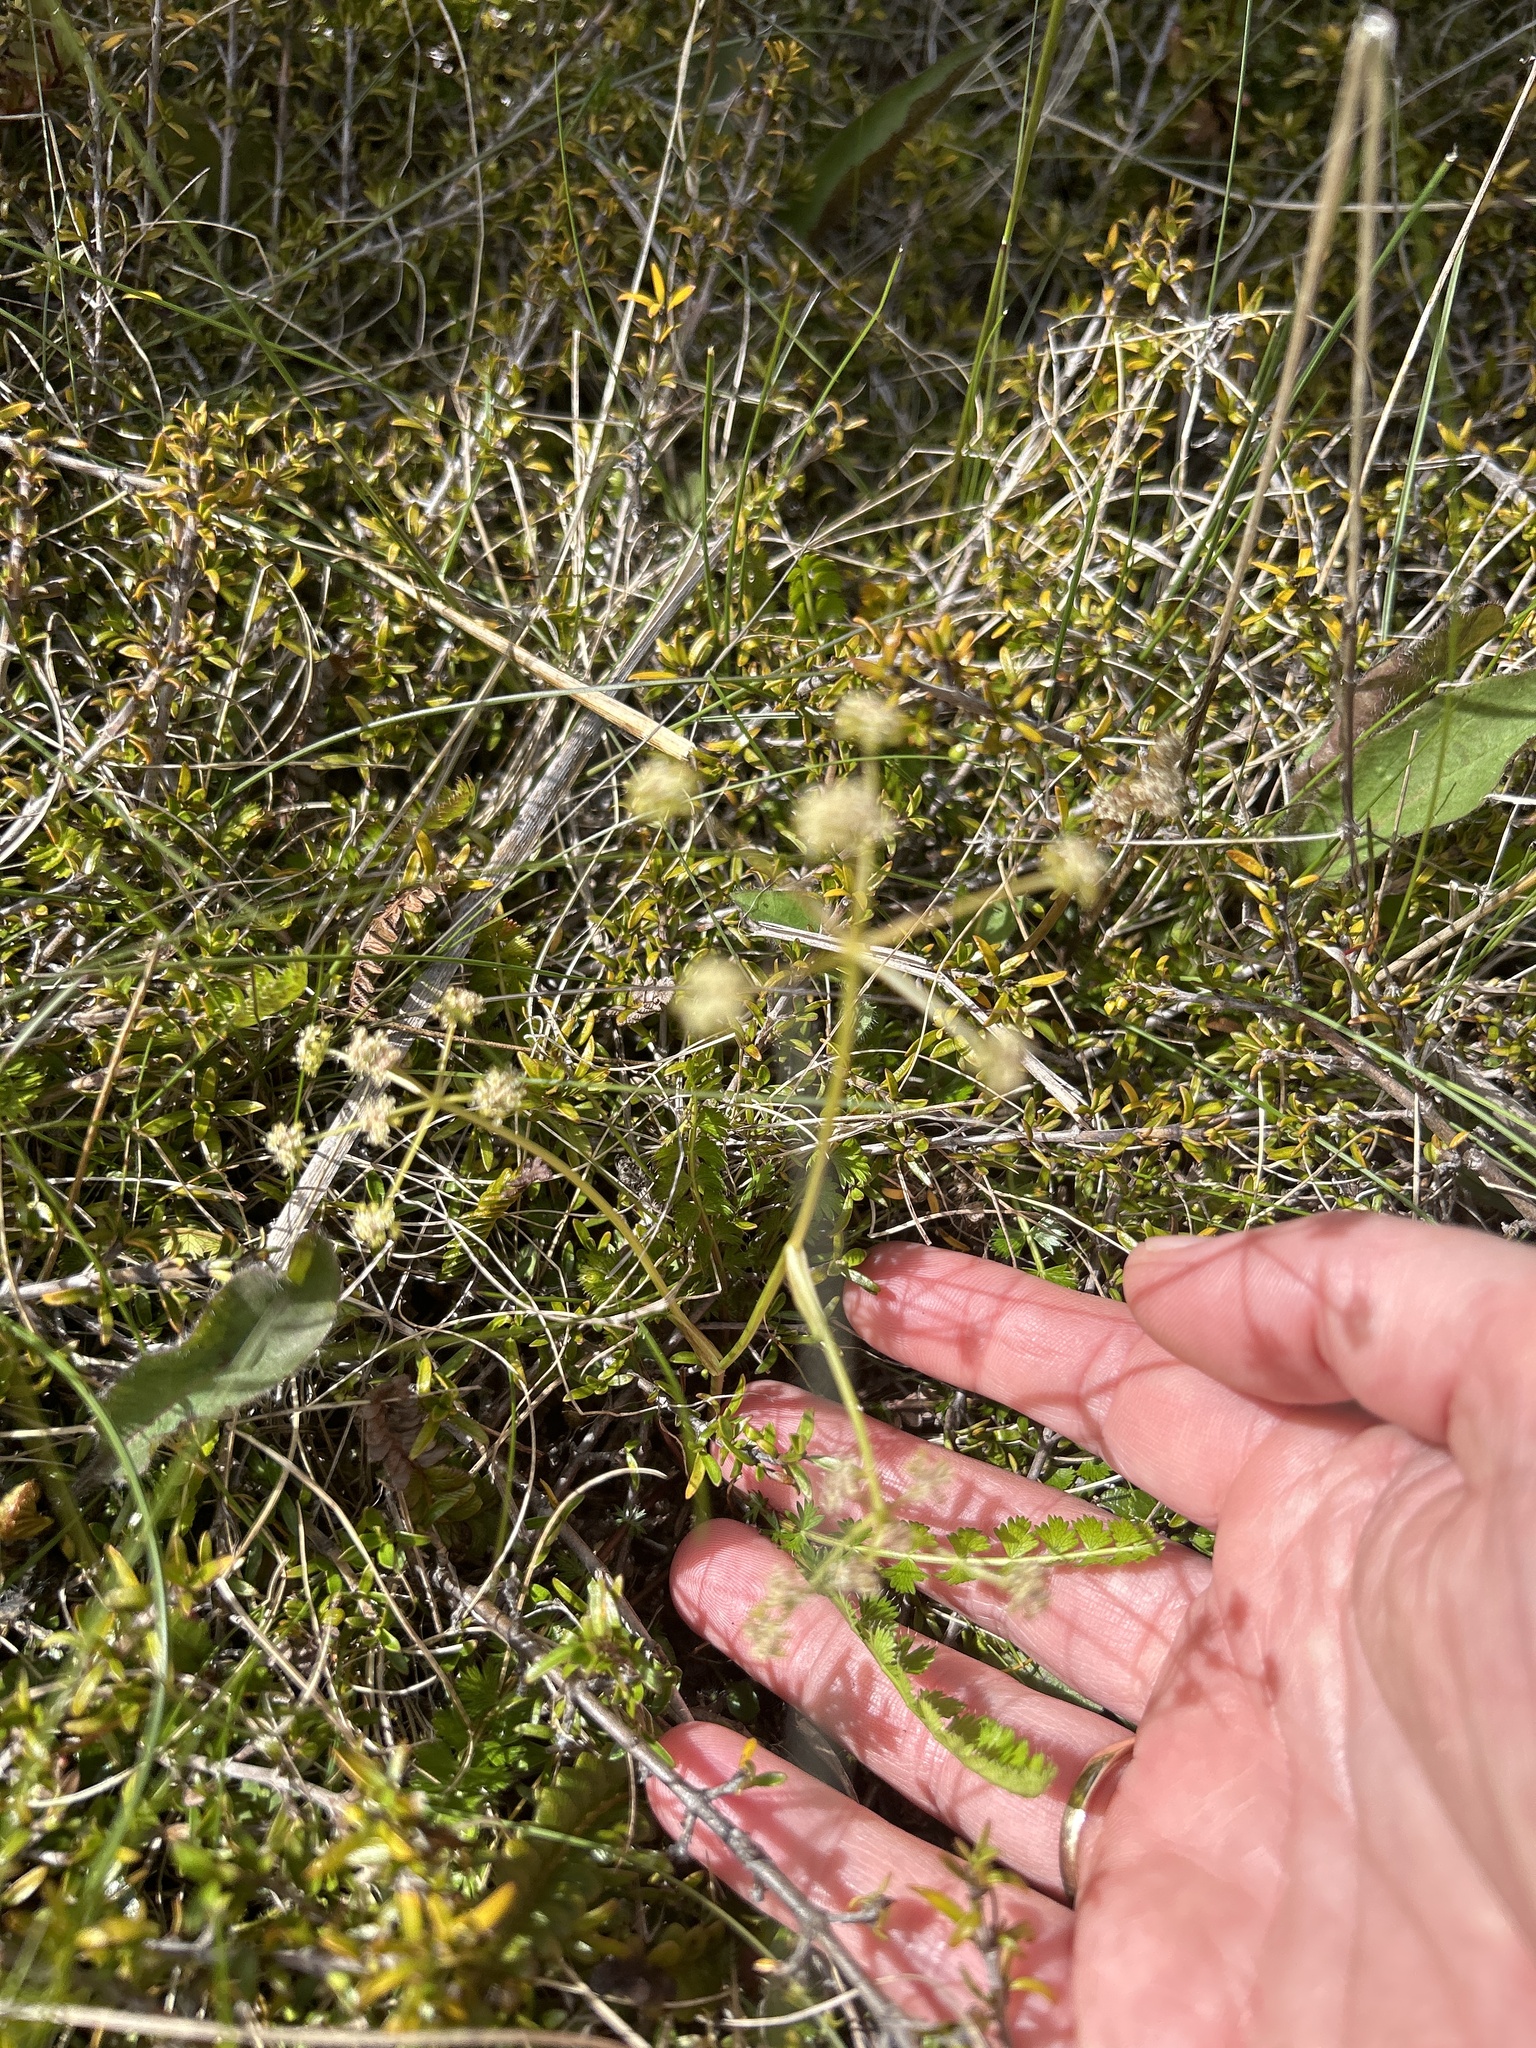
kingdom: Plantae
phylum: Tracheophyta
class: Magnoliopsida
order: Apiales
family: Apiaceae
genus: Anisotome
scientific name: Anisotome aromatica
